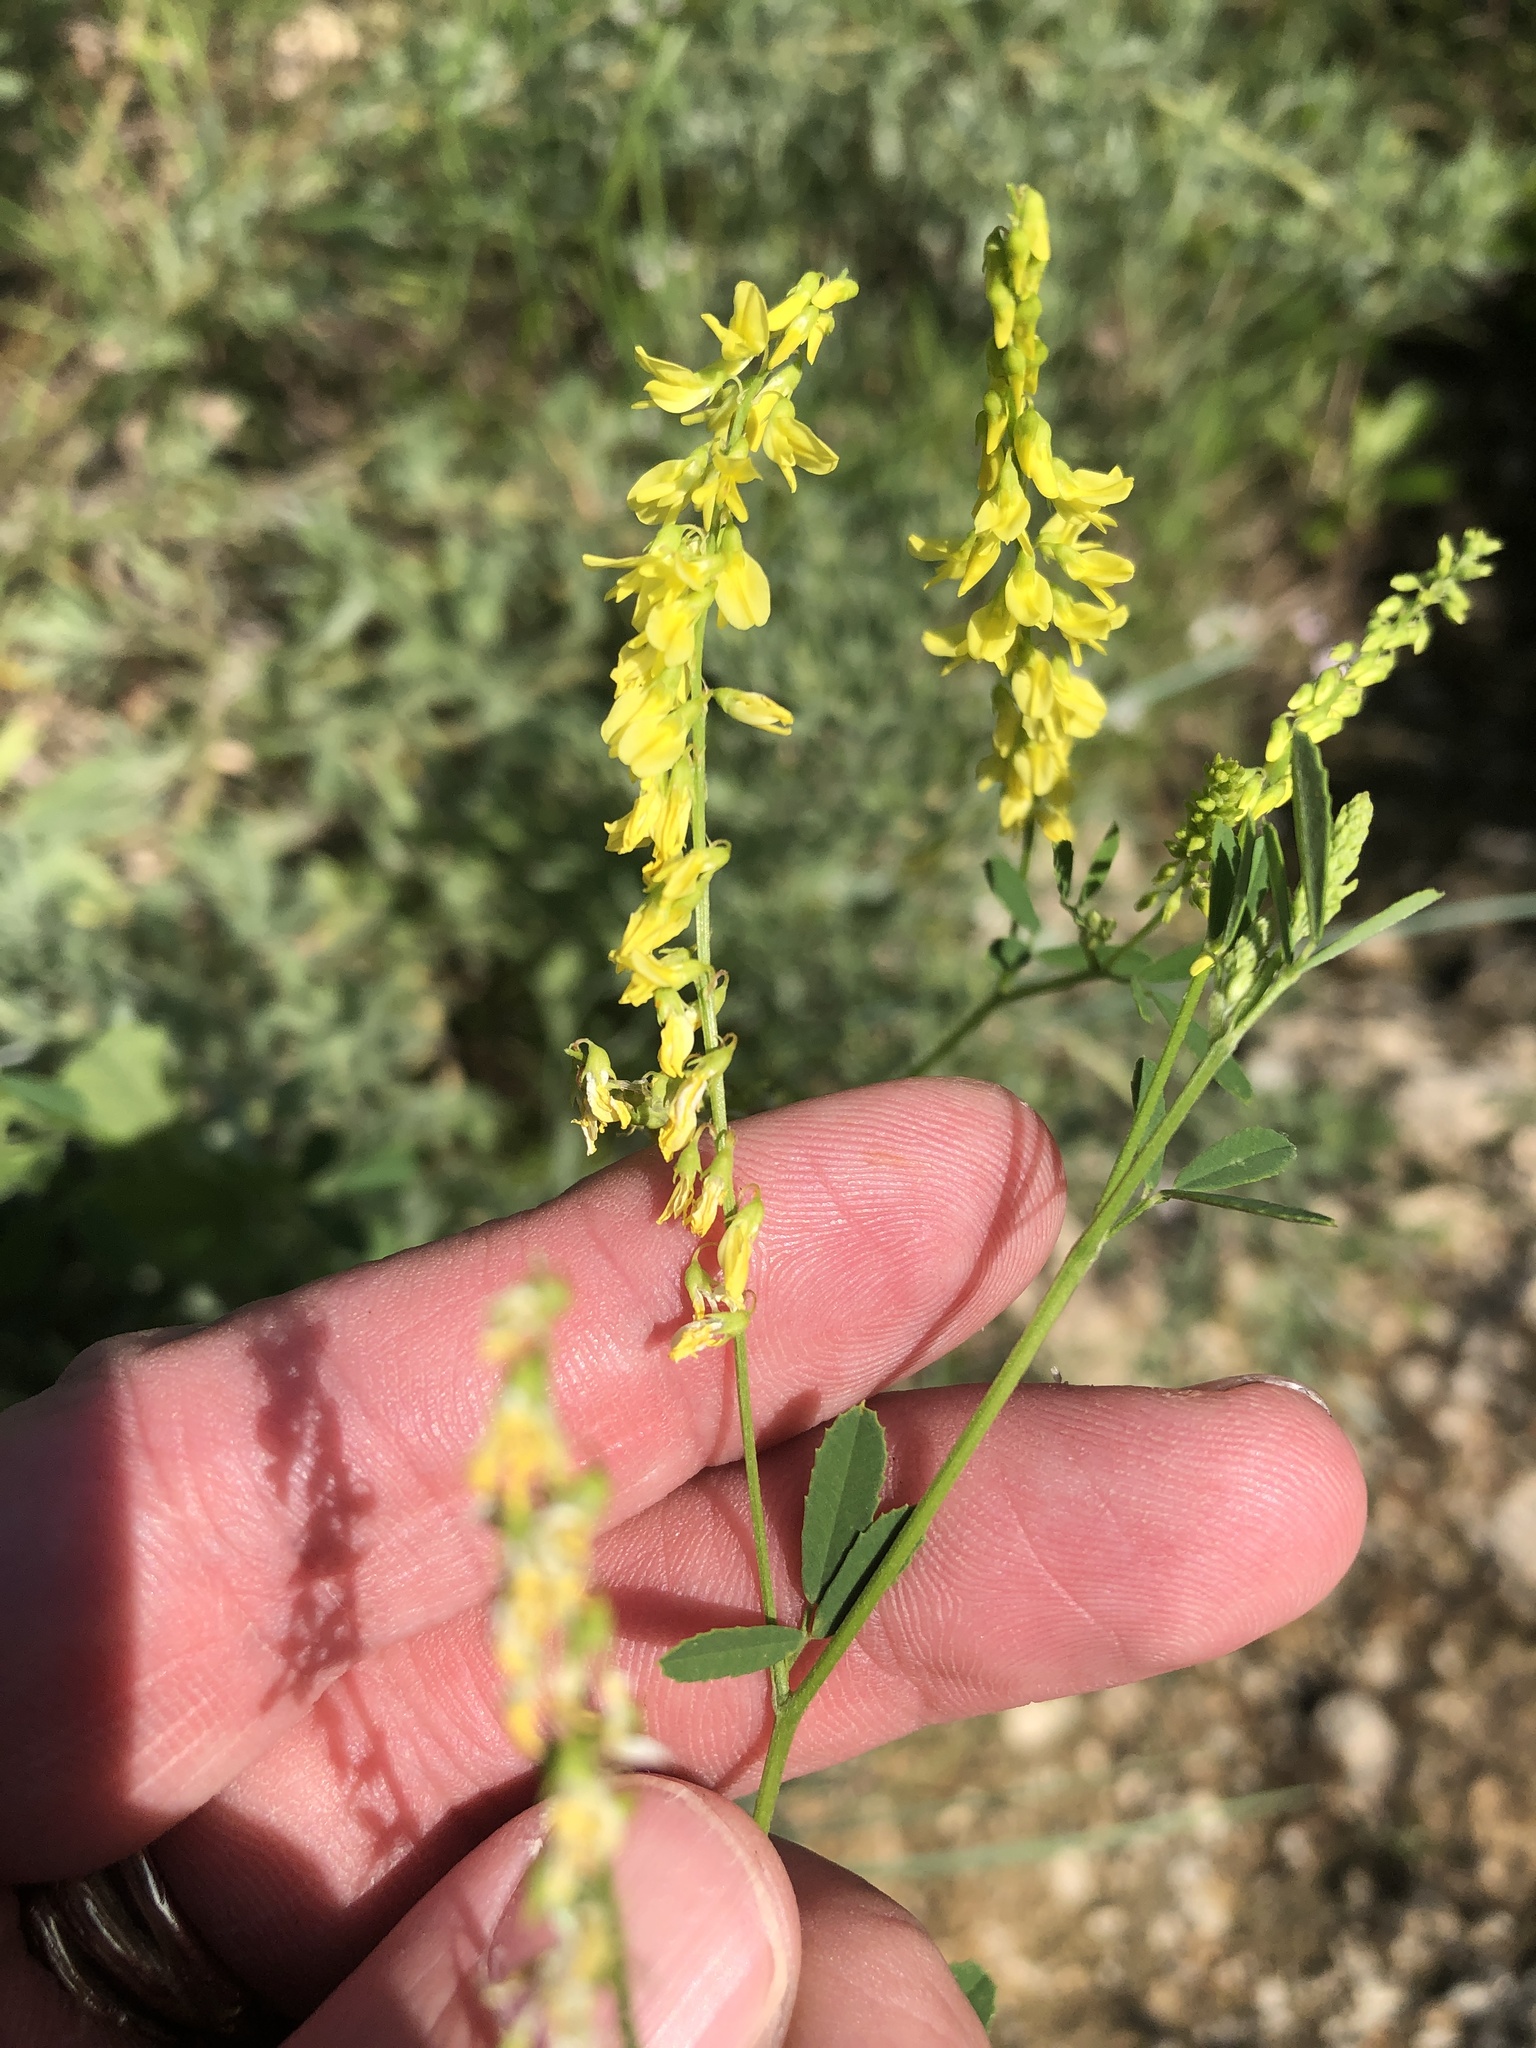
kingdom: Plantae
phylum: Tracheophyta
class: Magnoliopsida
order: Fabales
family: Fabaceae
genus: Melilotus
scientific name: Melilotus officinalis
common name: Sweetclover
